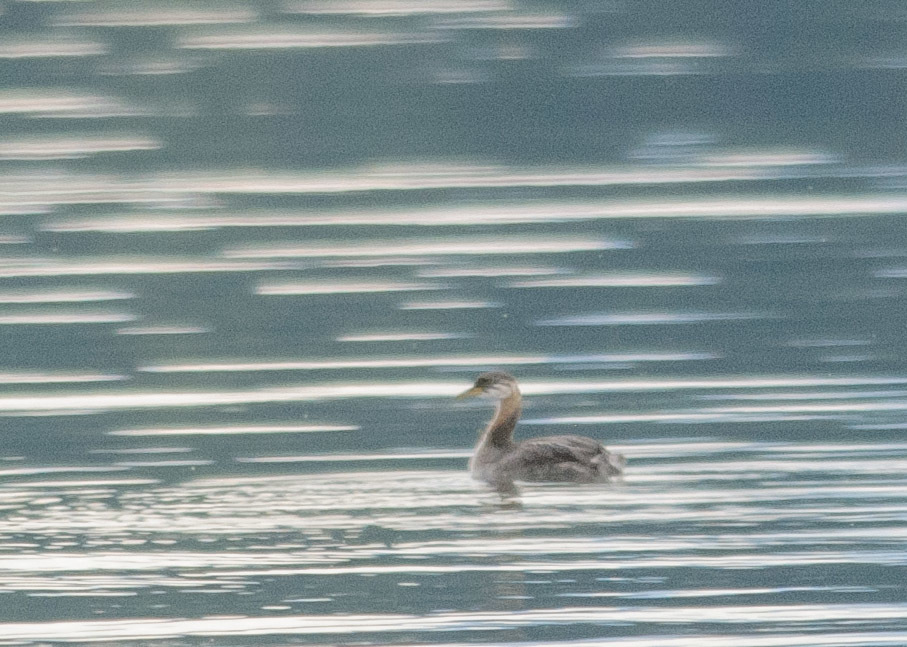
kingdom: Animalia
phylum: Chordata
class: Aves
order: Podicipediformes
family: Podicipedidae
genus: Podiceps
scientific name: Podiceps grisegena
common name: Red-necked grebe
